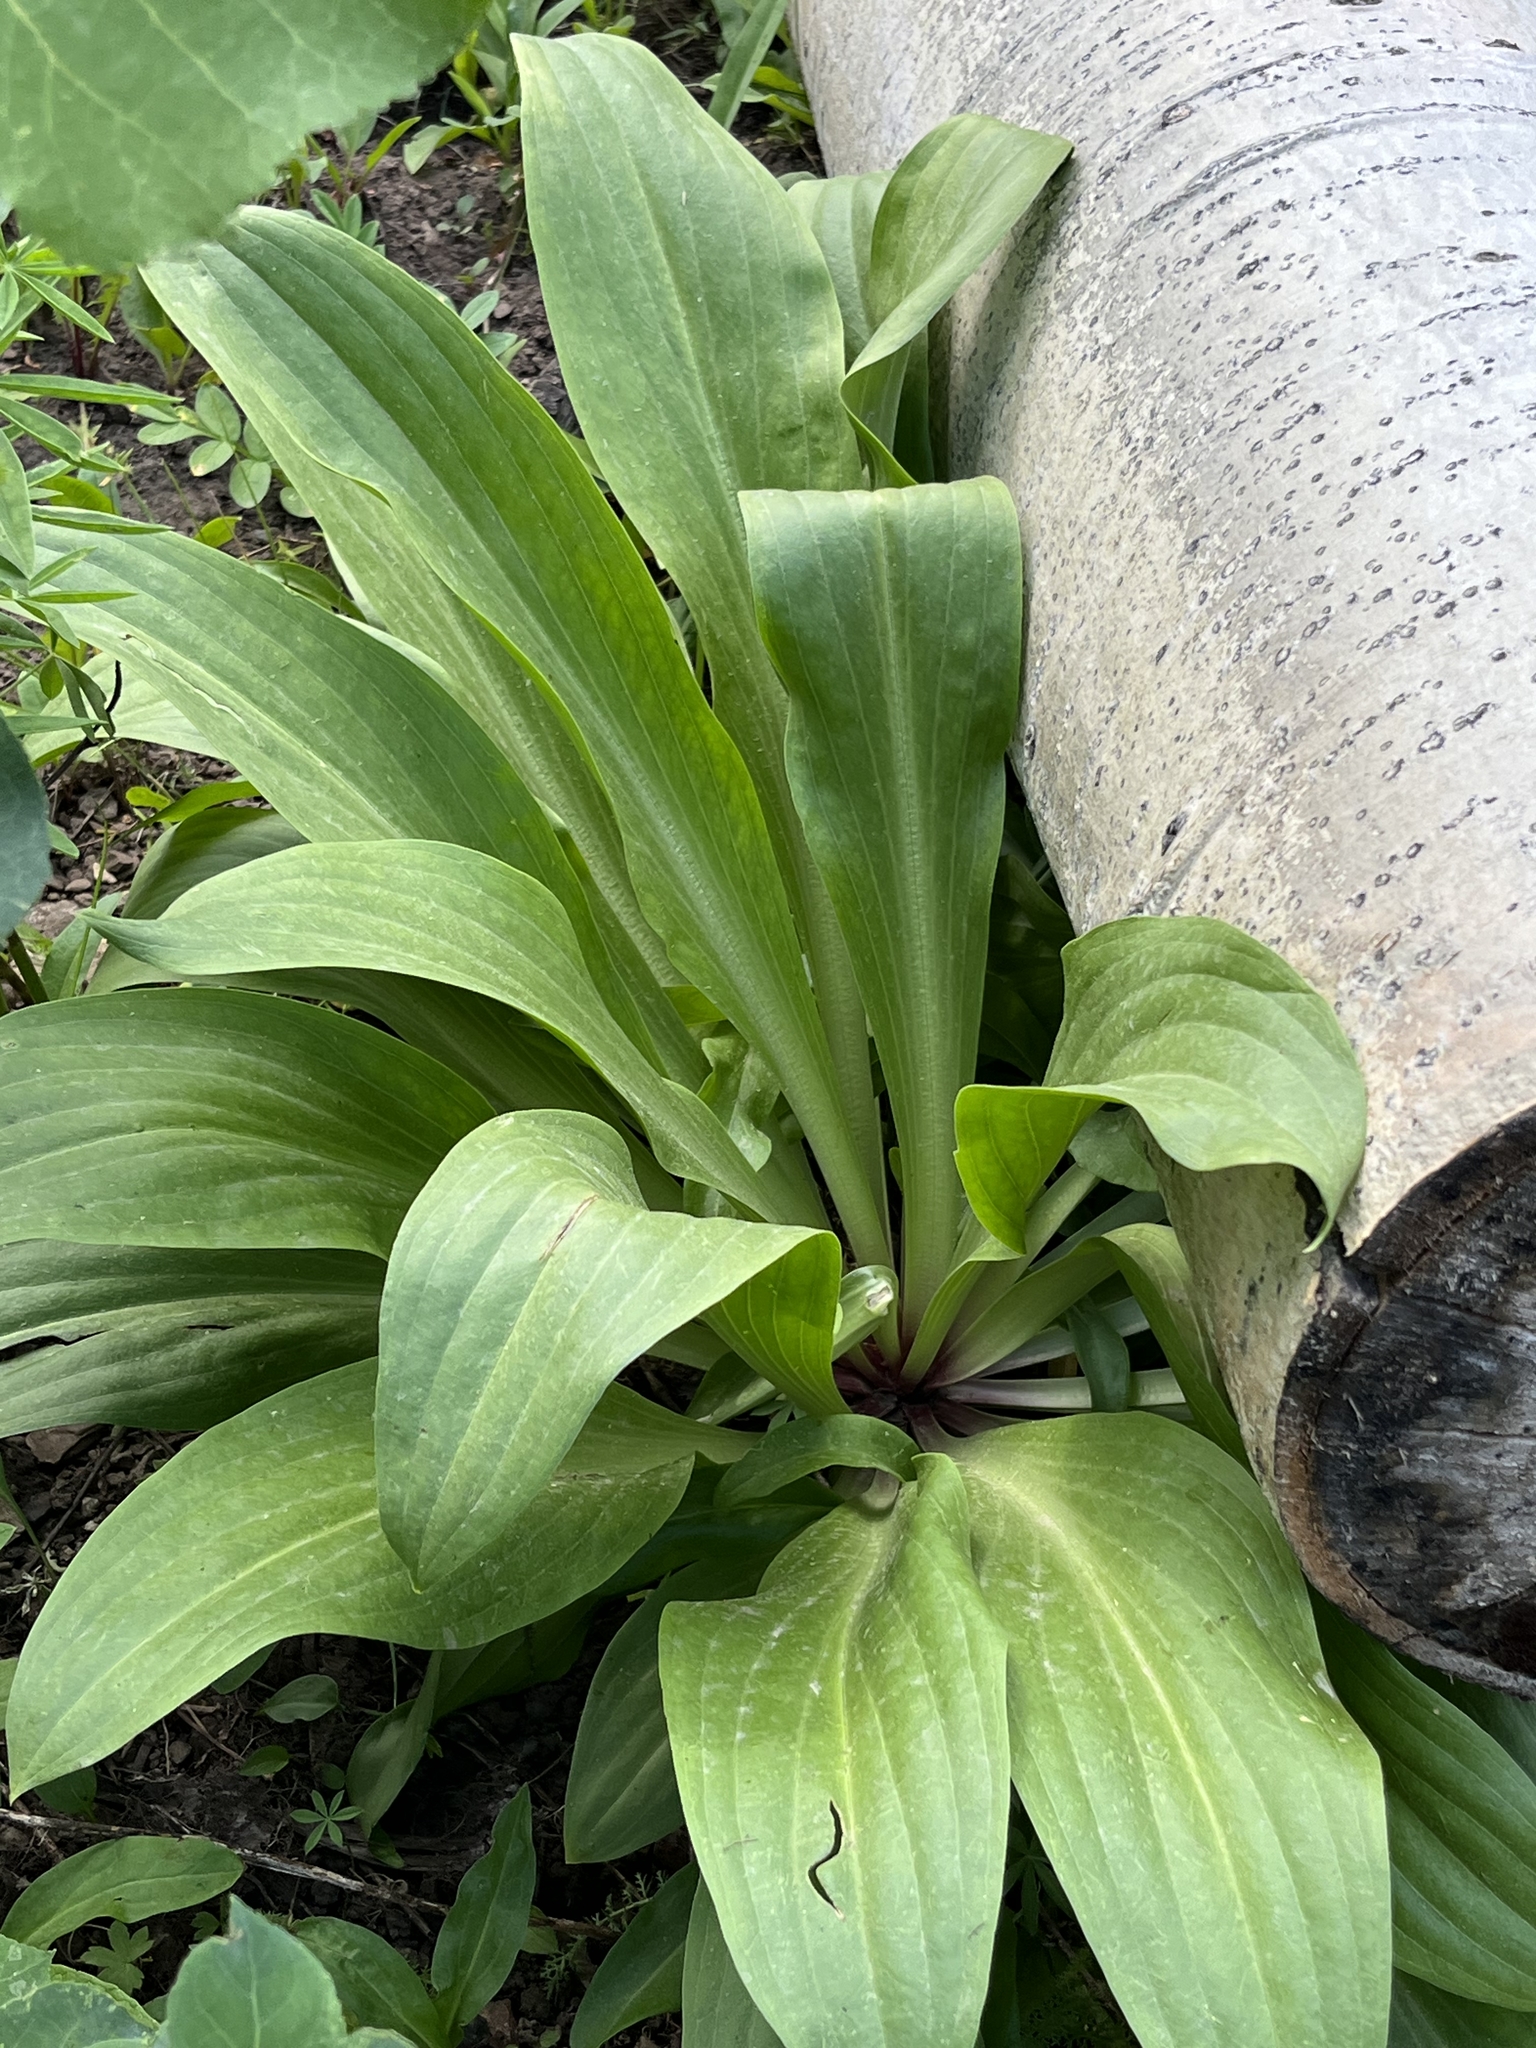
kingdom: Plantae
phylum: Tracheophyta
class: Magnoliopsida
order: Gentianales
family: Gentianaceae
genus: Frasera
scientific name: Frasera speciosa
